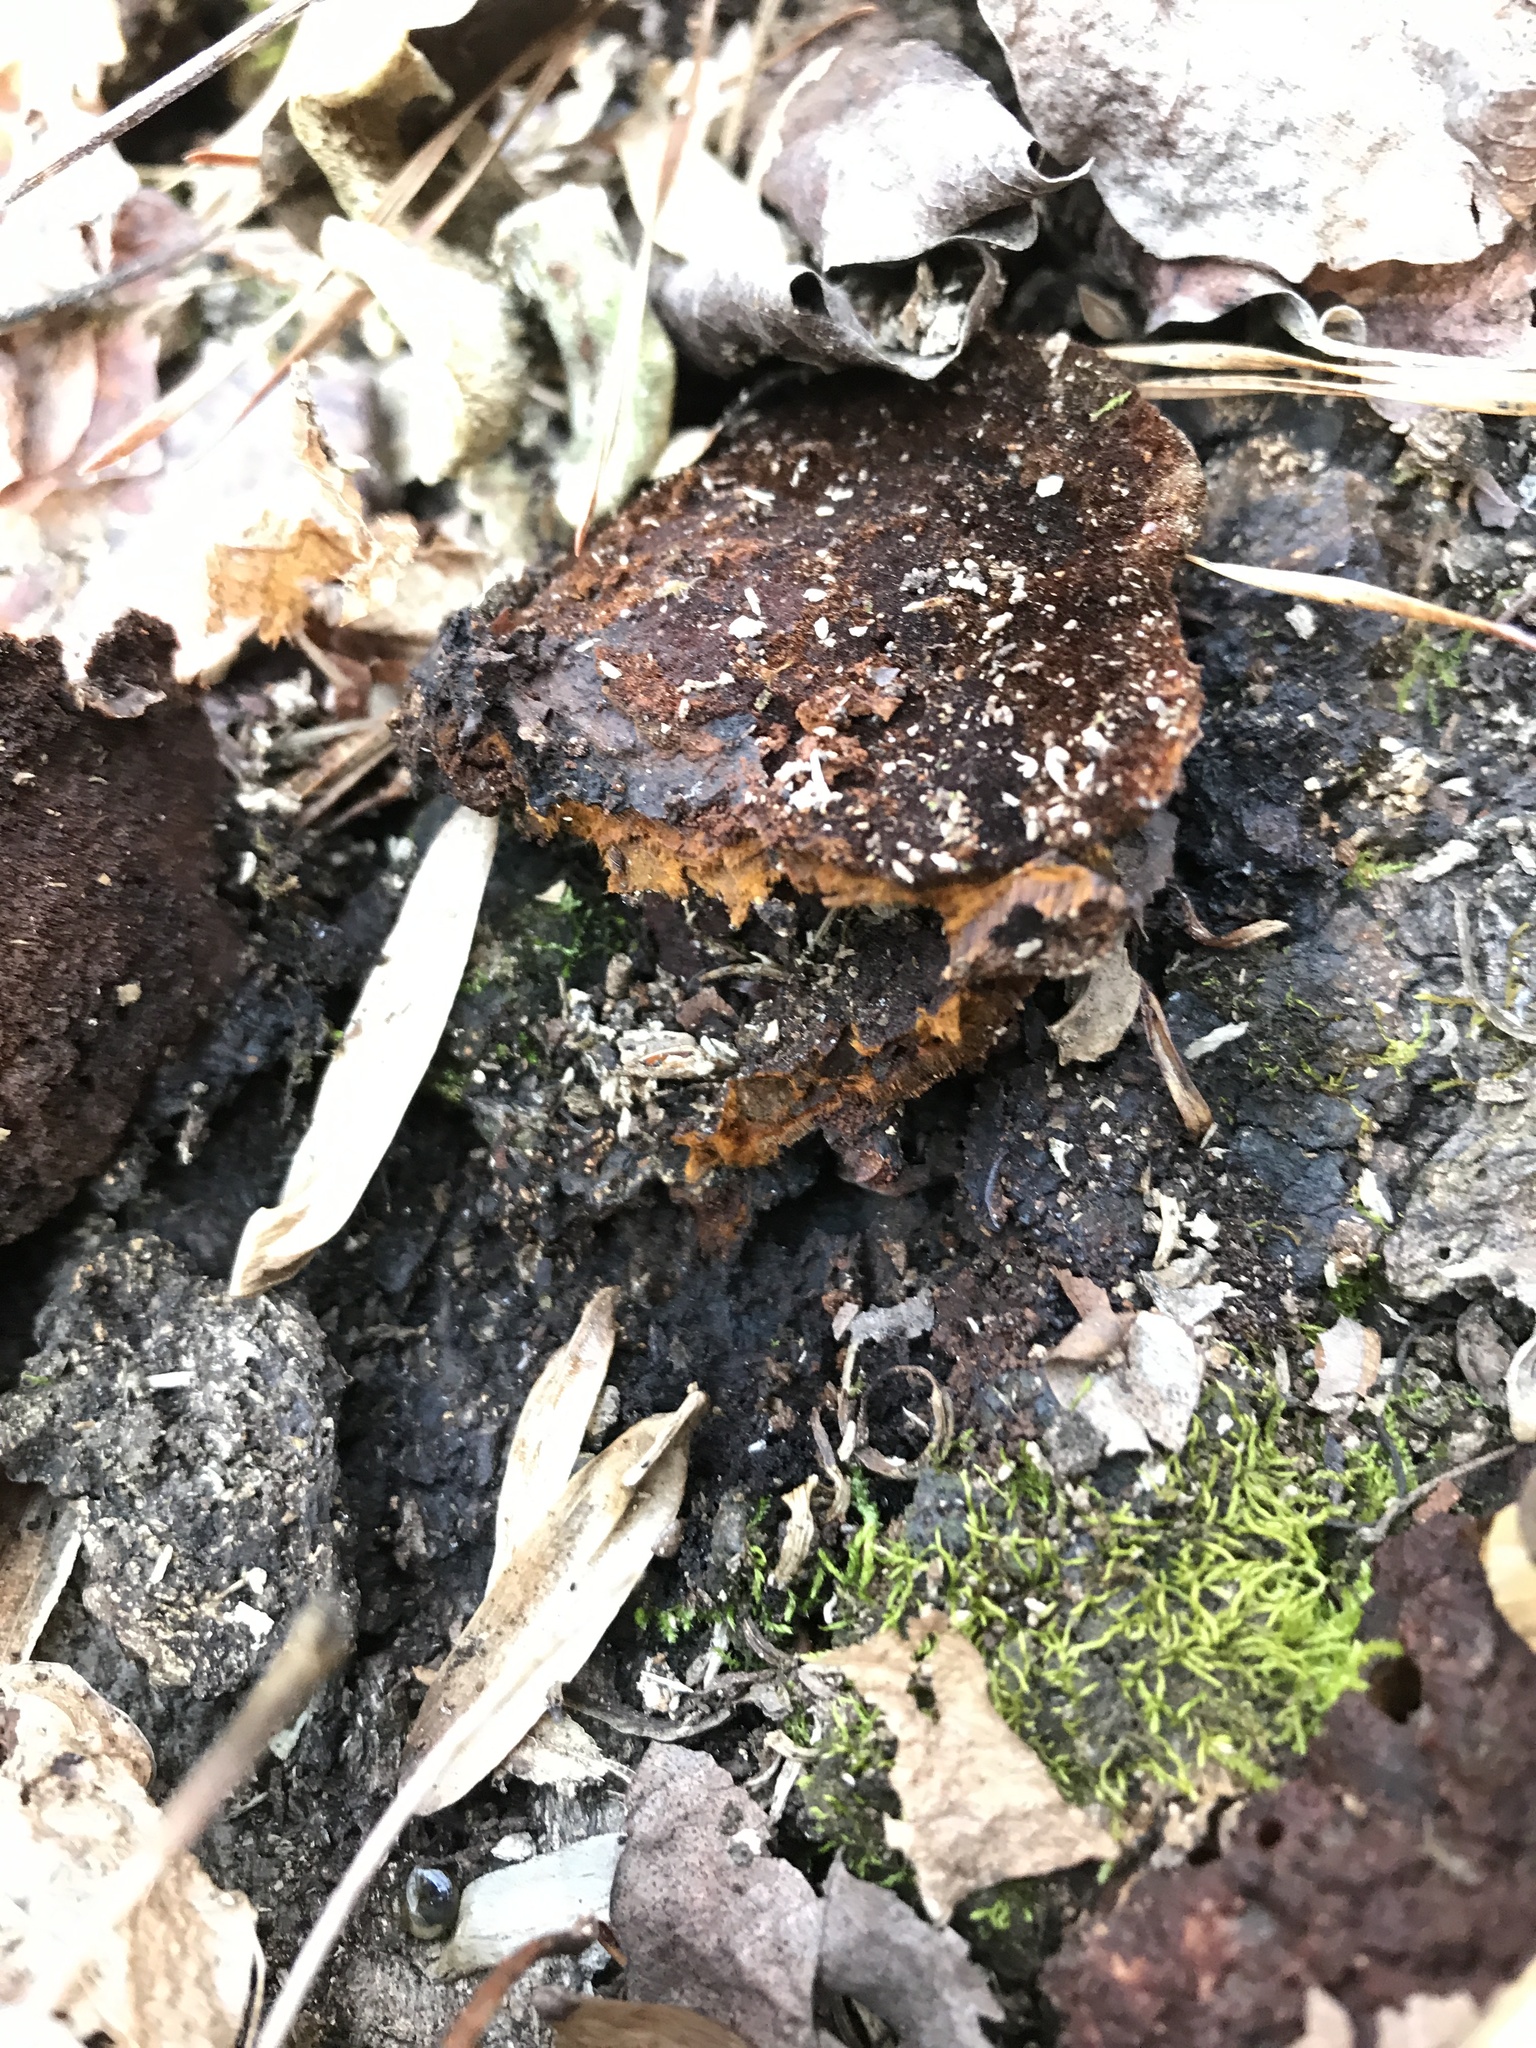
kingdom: Fungi
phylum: Basidiomycota
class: Agaricomycetes
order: Hymenochaetales
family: Hymenochaetaceae
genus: Phellinus
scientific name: Phellinus gilvus
